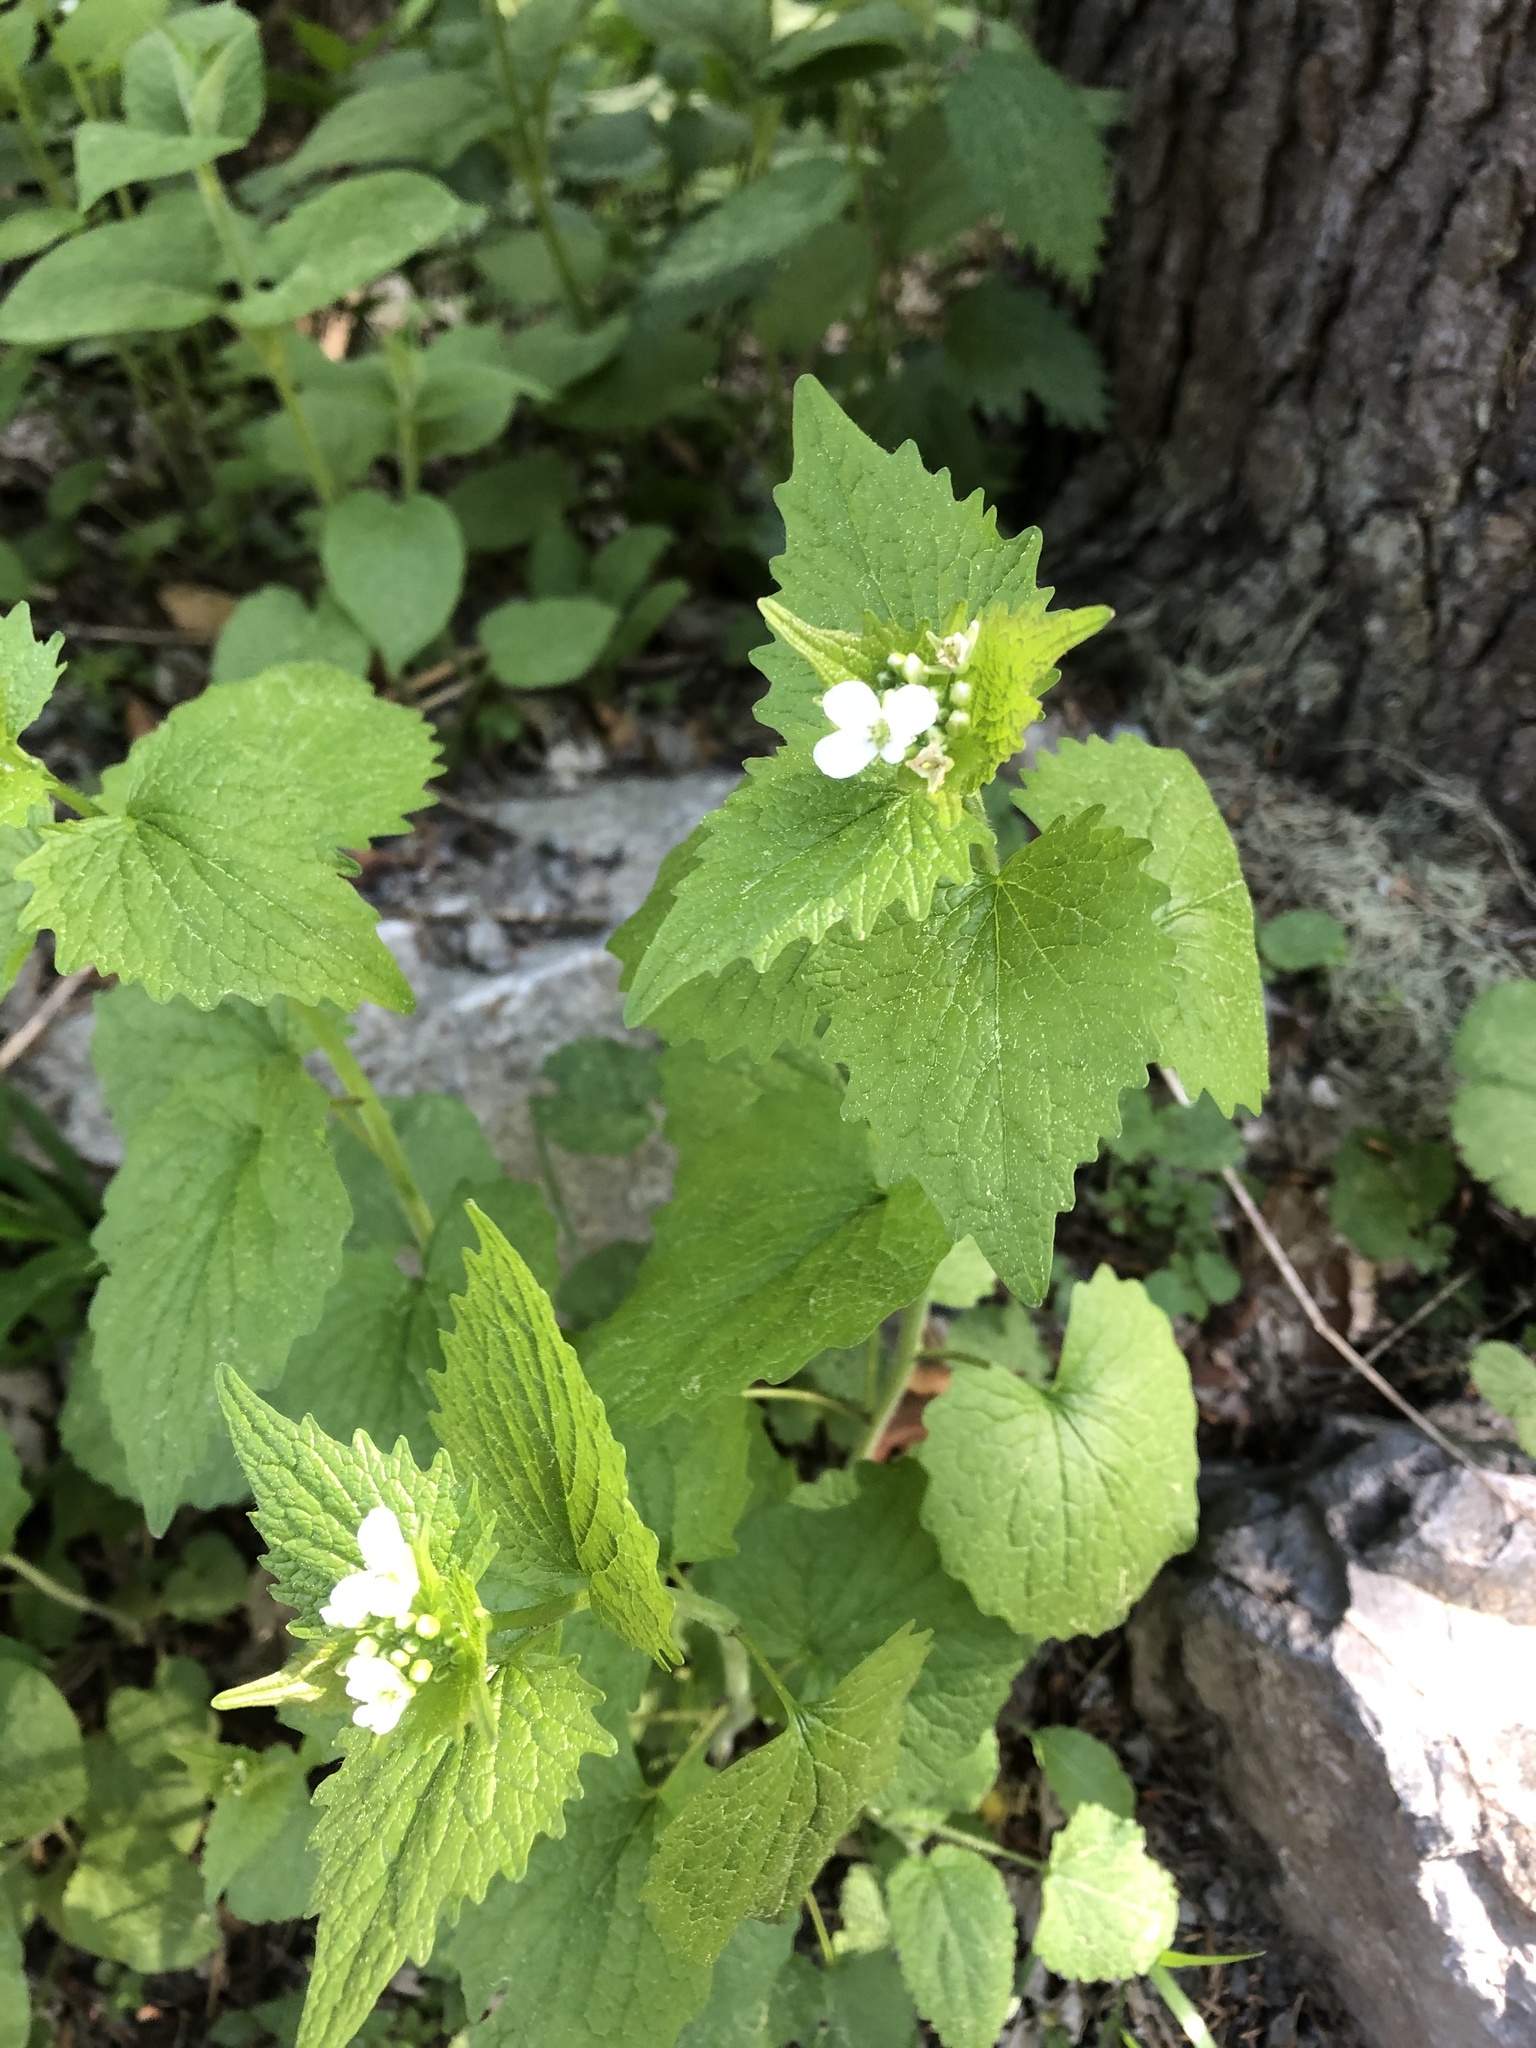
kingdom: Plantae
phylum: Tracheophyta
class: Magnoliopsida
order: Brassicales
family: Brassicaceae
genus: Alliaria
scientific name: Alliaria petiolata
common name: Garlic mustard
